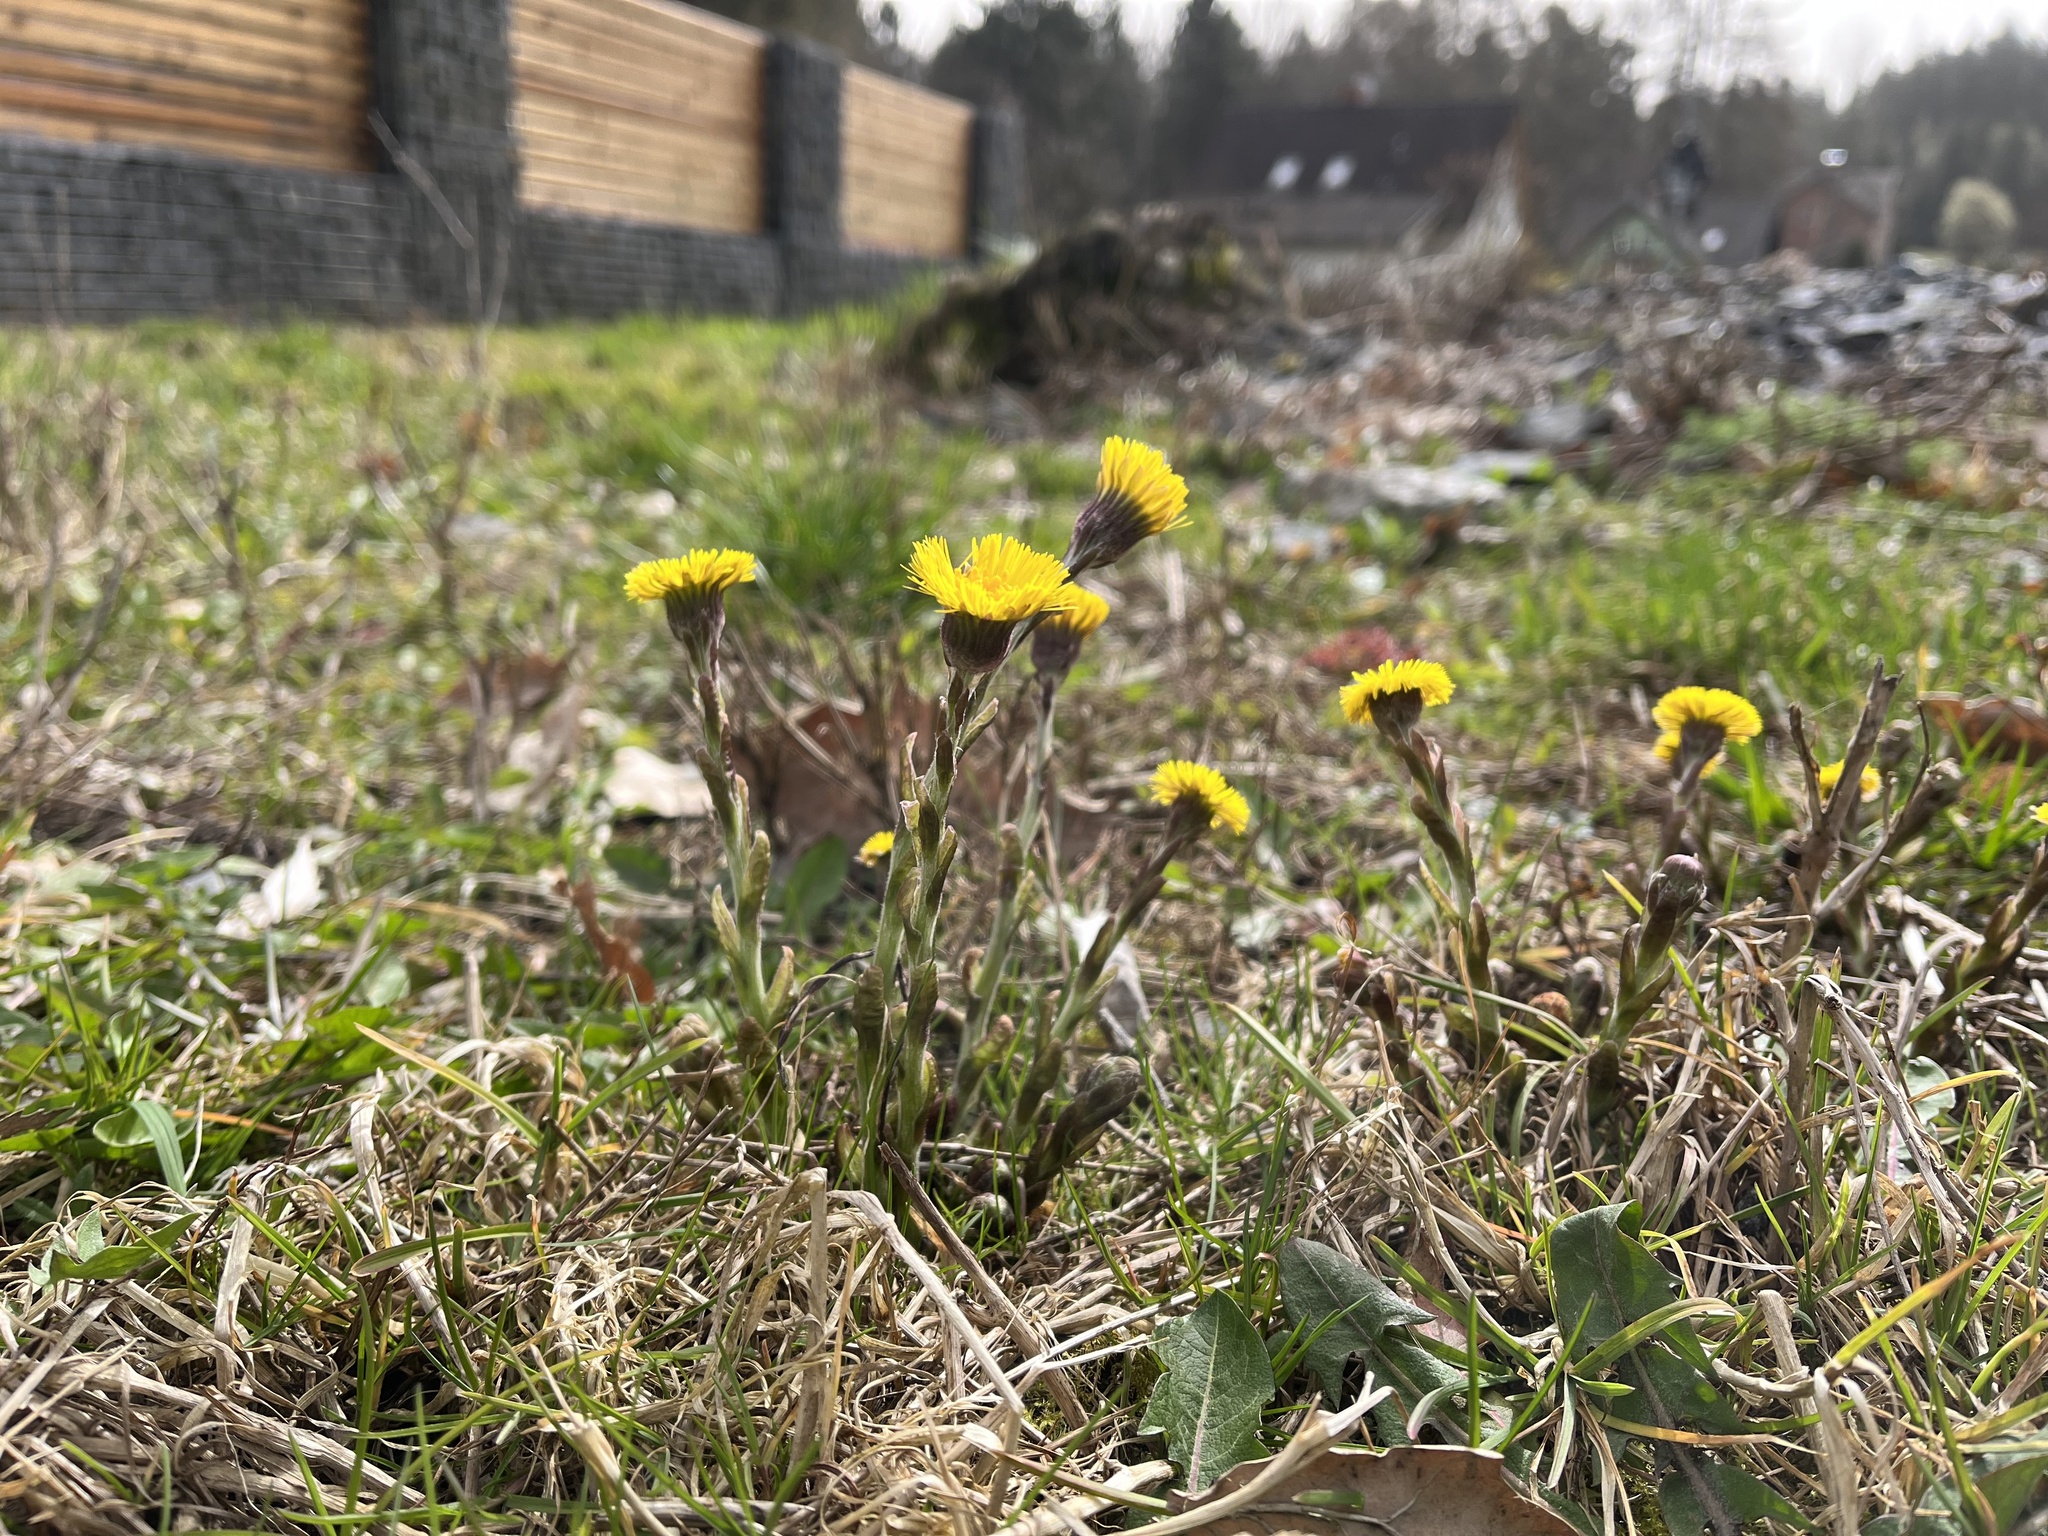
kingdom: Plantae
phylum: Tracheophyta
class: Magnoliopsida
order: Asterales
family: Asteraceae
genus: Tussilago
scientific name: Tussilago farfara
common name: Coltsfoot
